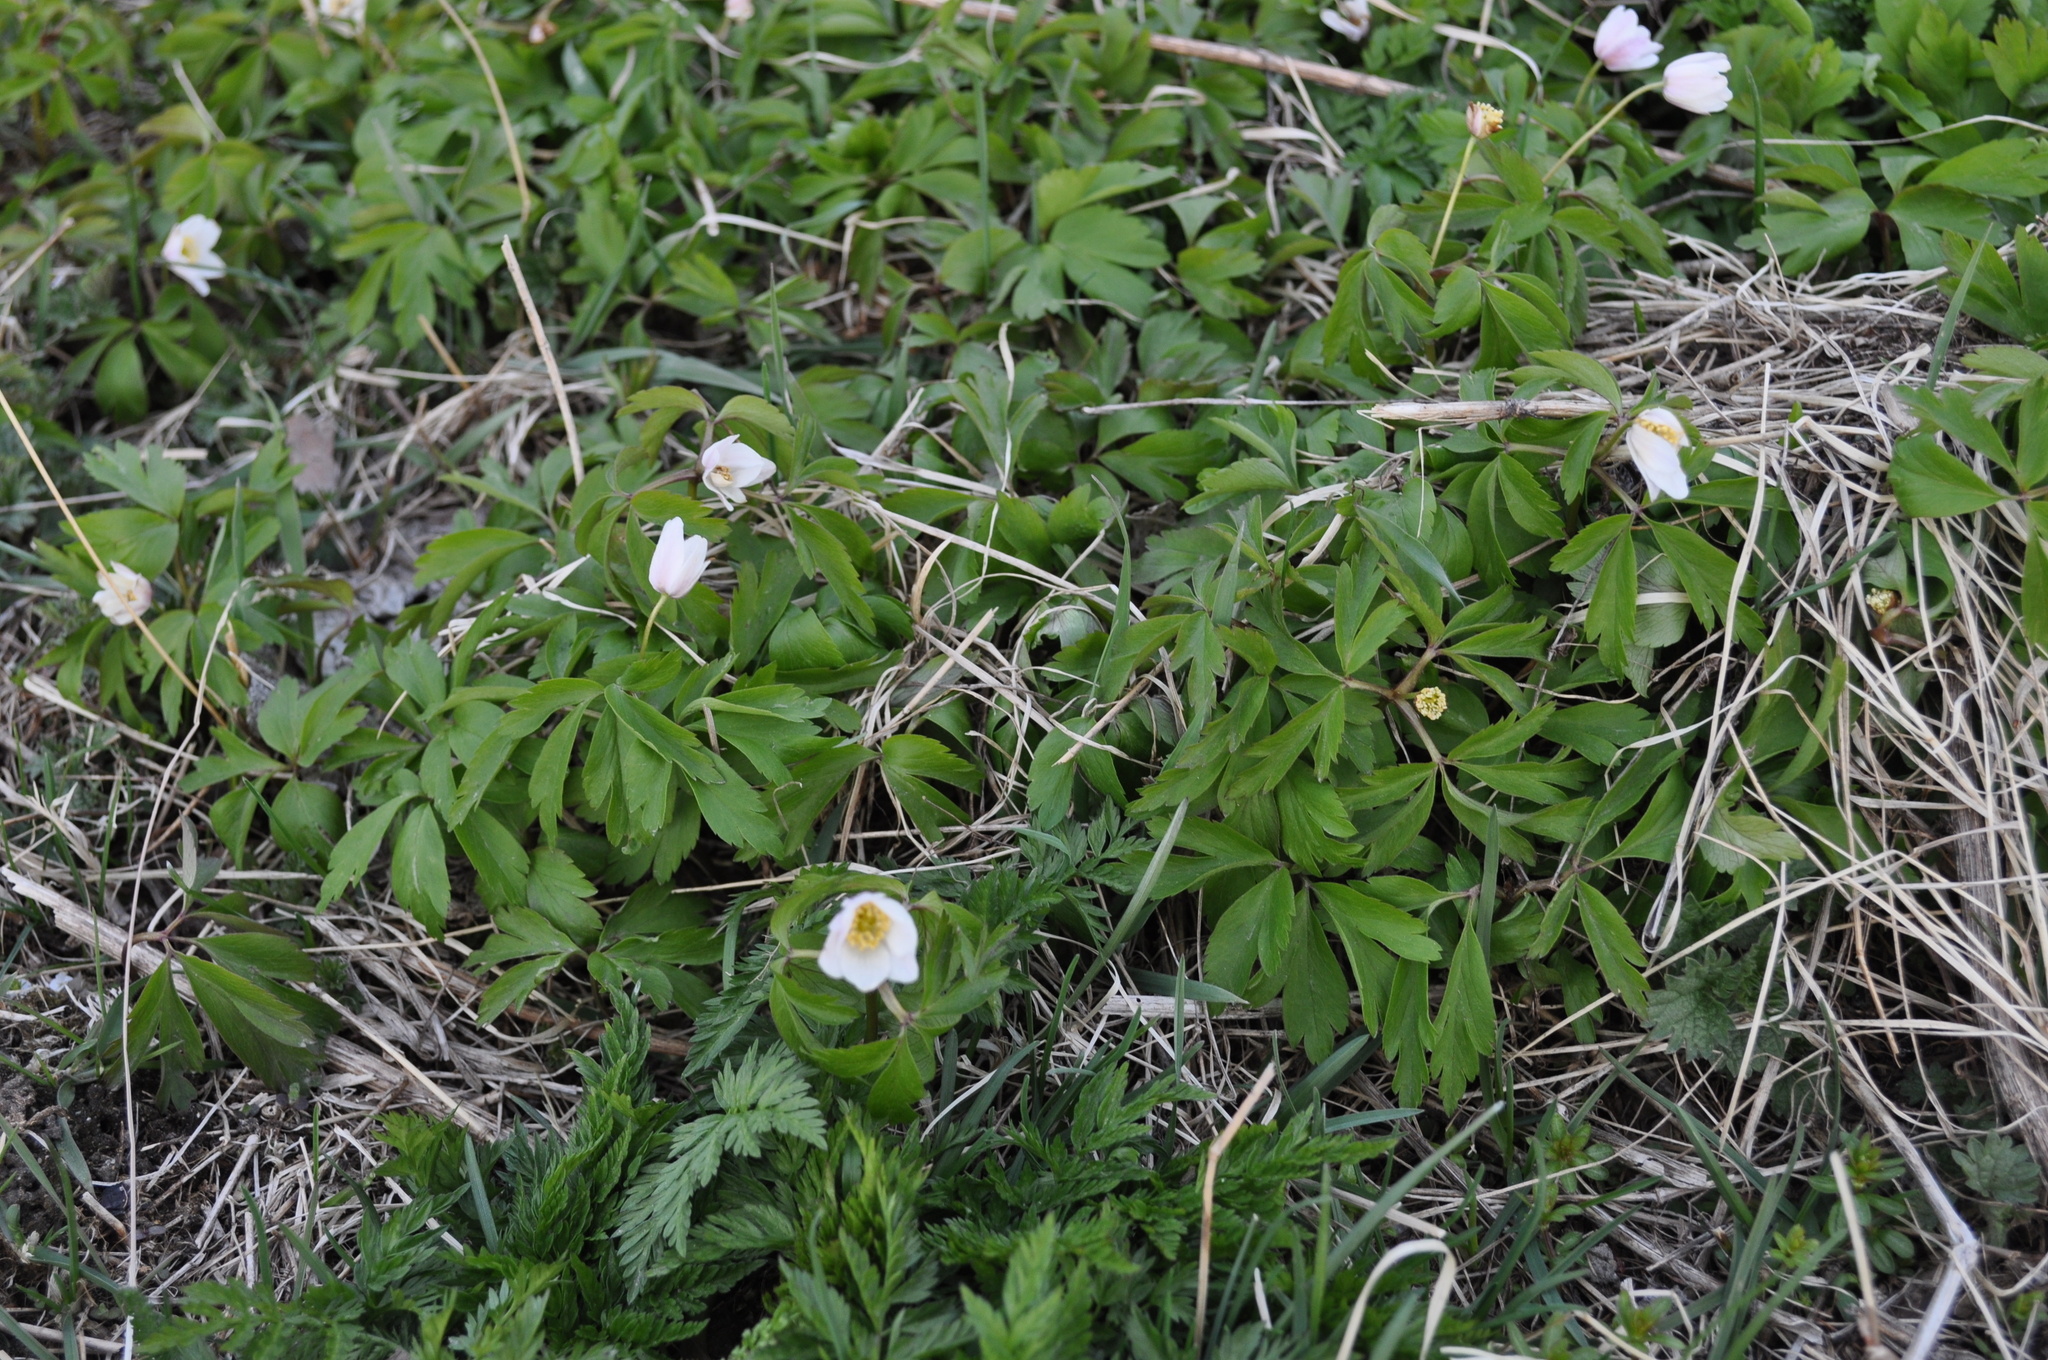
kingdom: Plantae
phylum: Tracheophyta
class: Magnoliopsida
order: Ranunculales
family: Ranunculaceae
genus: Anemone
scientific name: Anemone nemorosa
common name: Wood anemone
